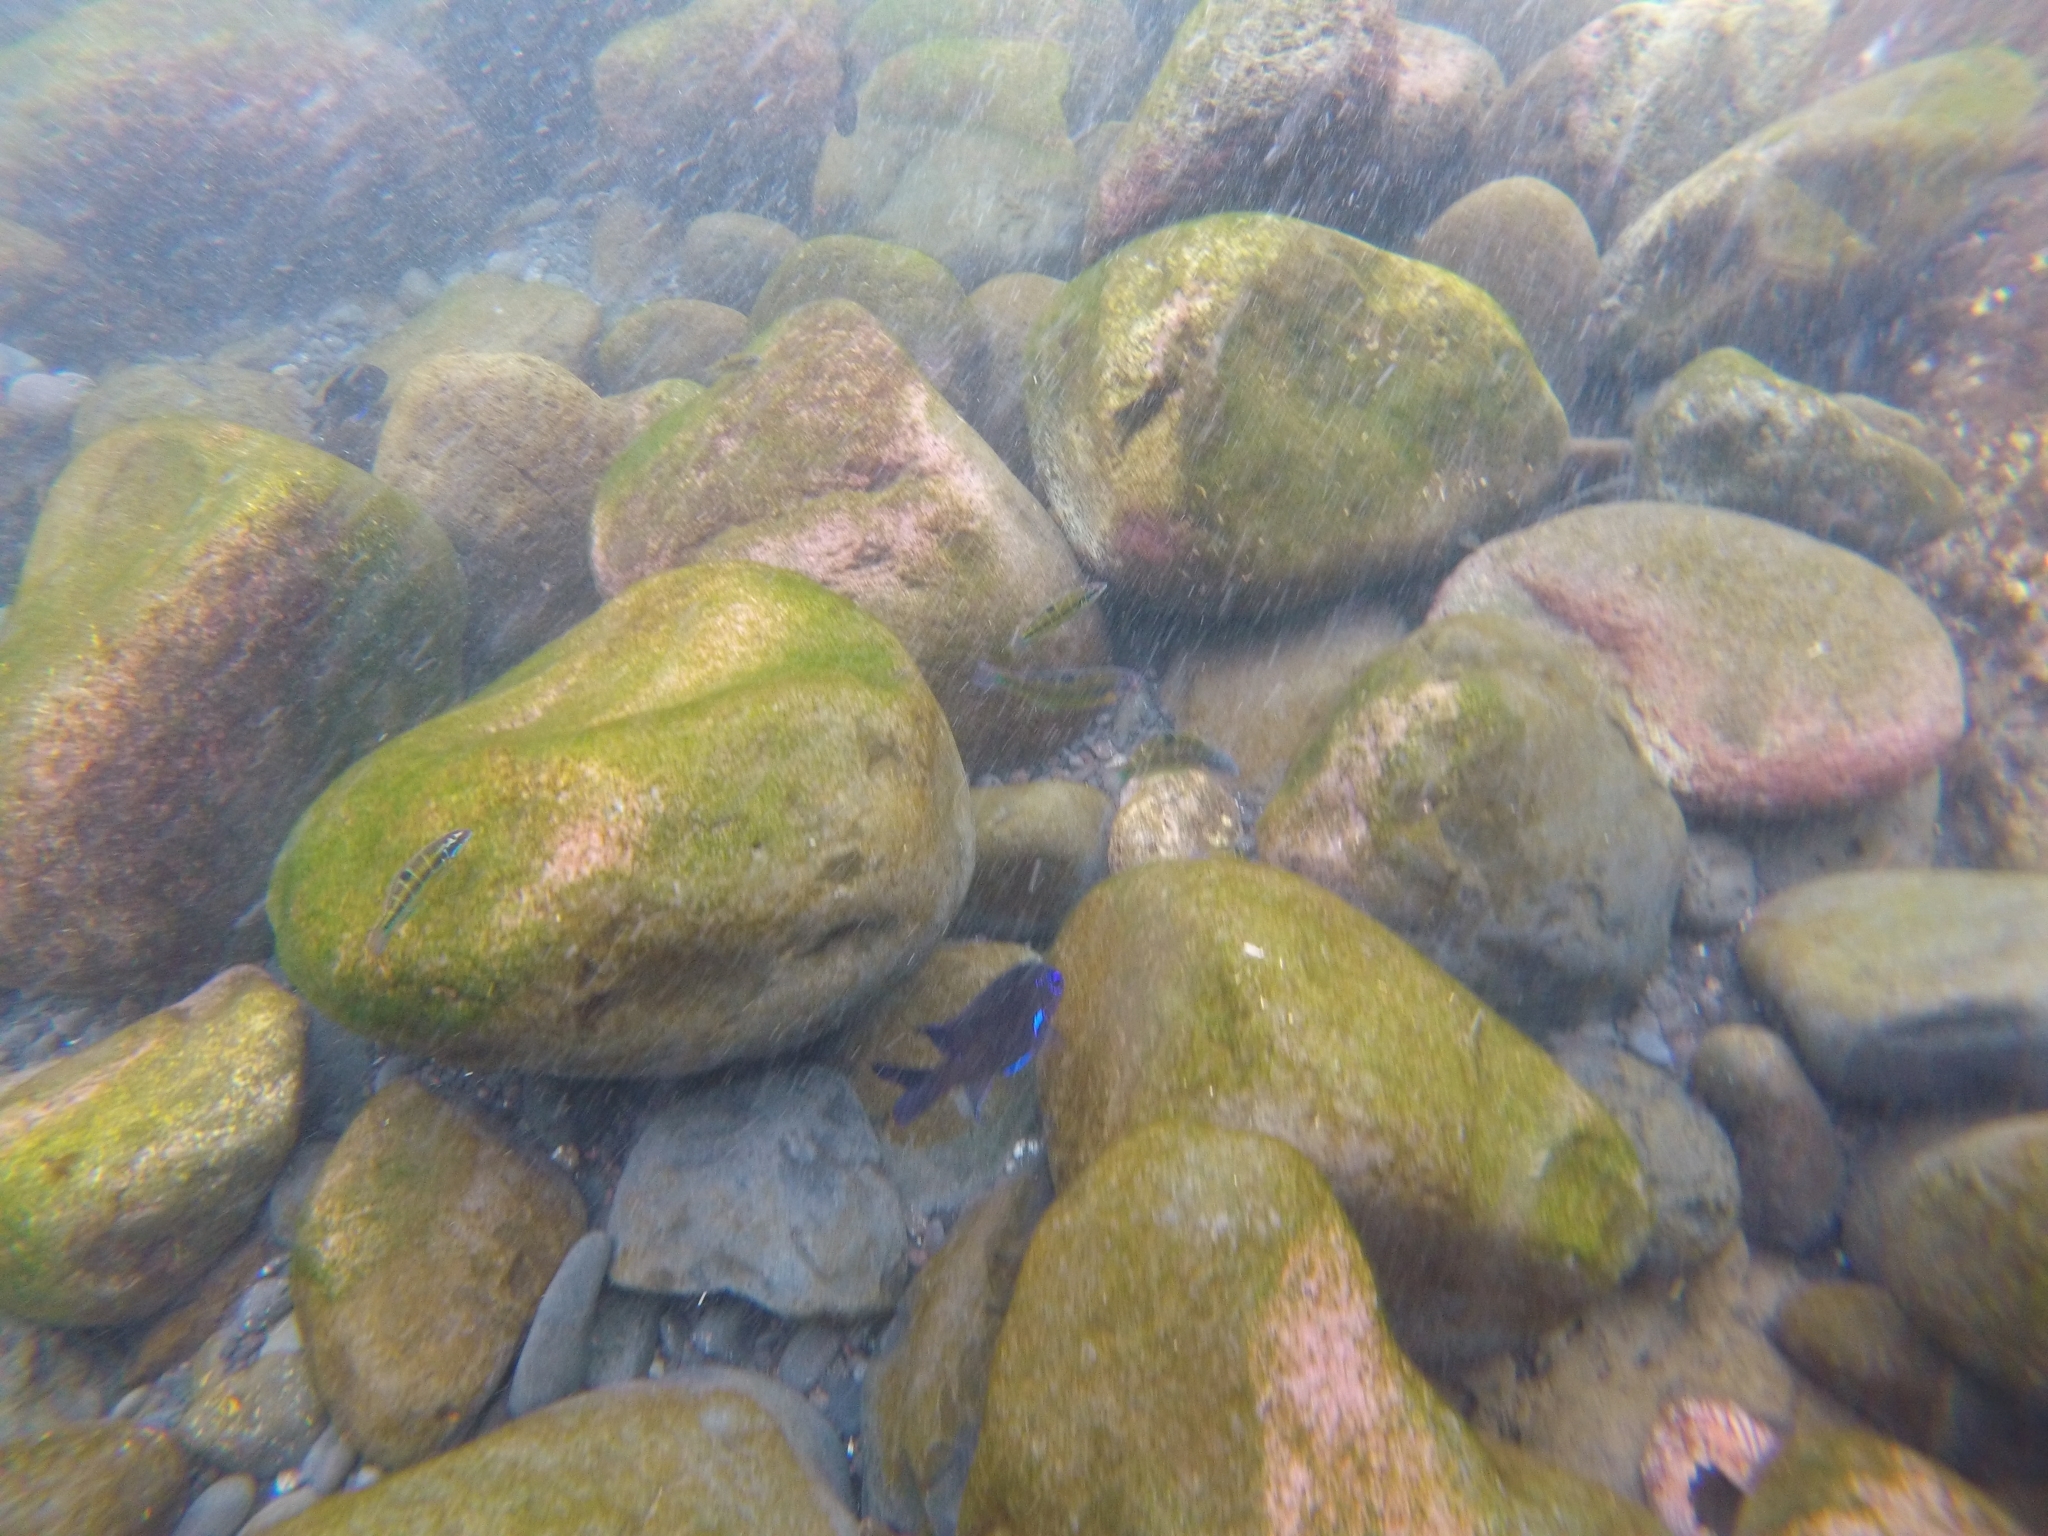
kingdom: Animalia
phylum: Chordata
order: Perciformes
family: Pomacentridae
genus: Similiparma
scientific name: Similiparma lurida
